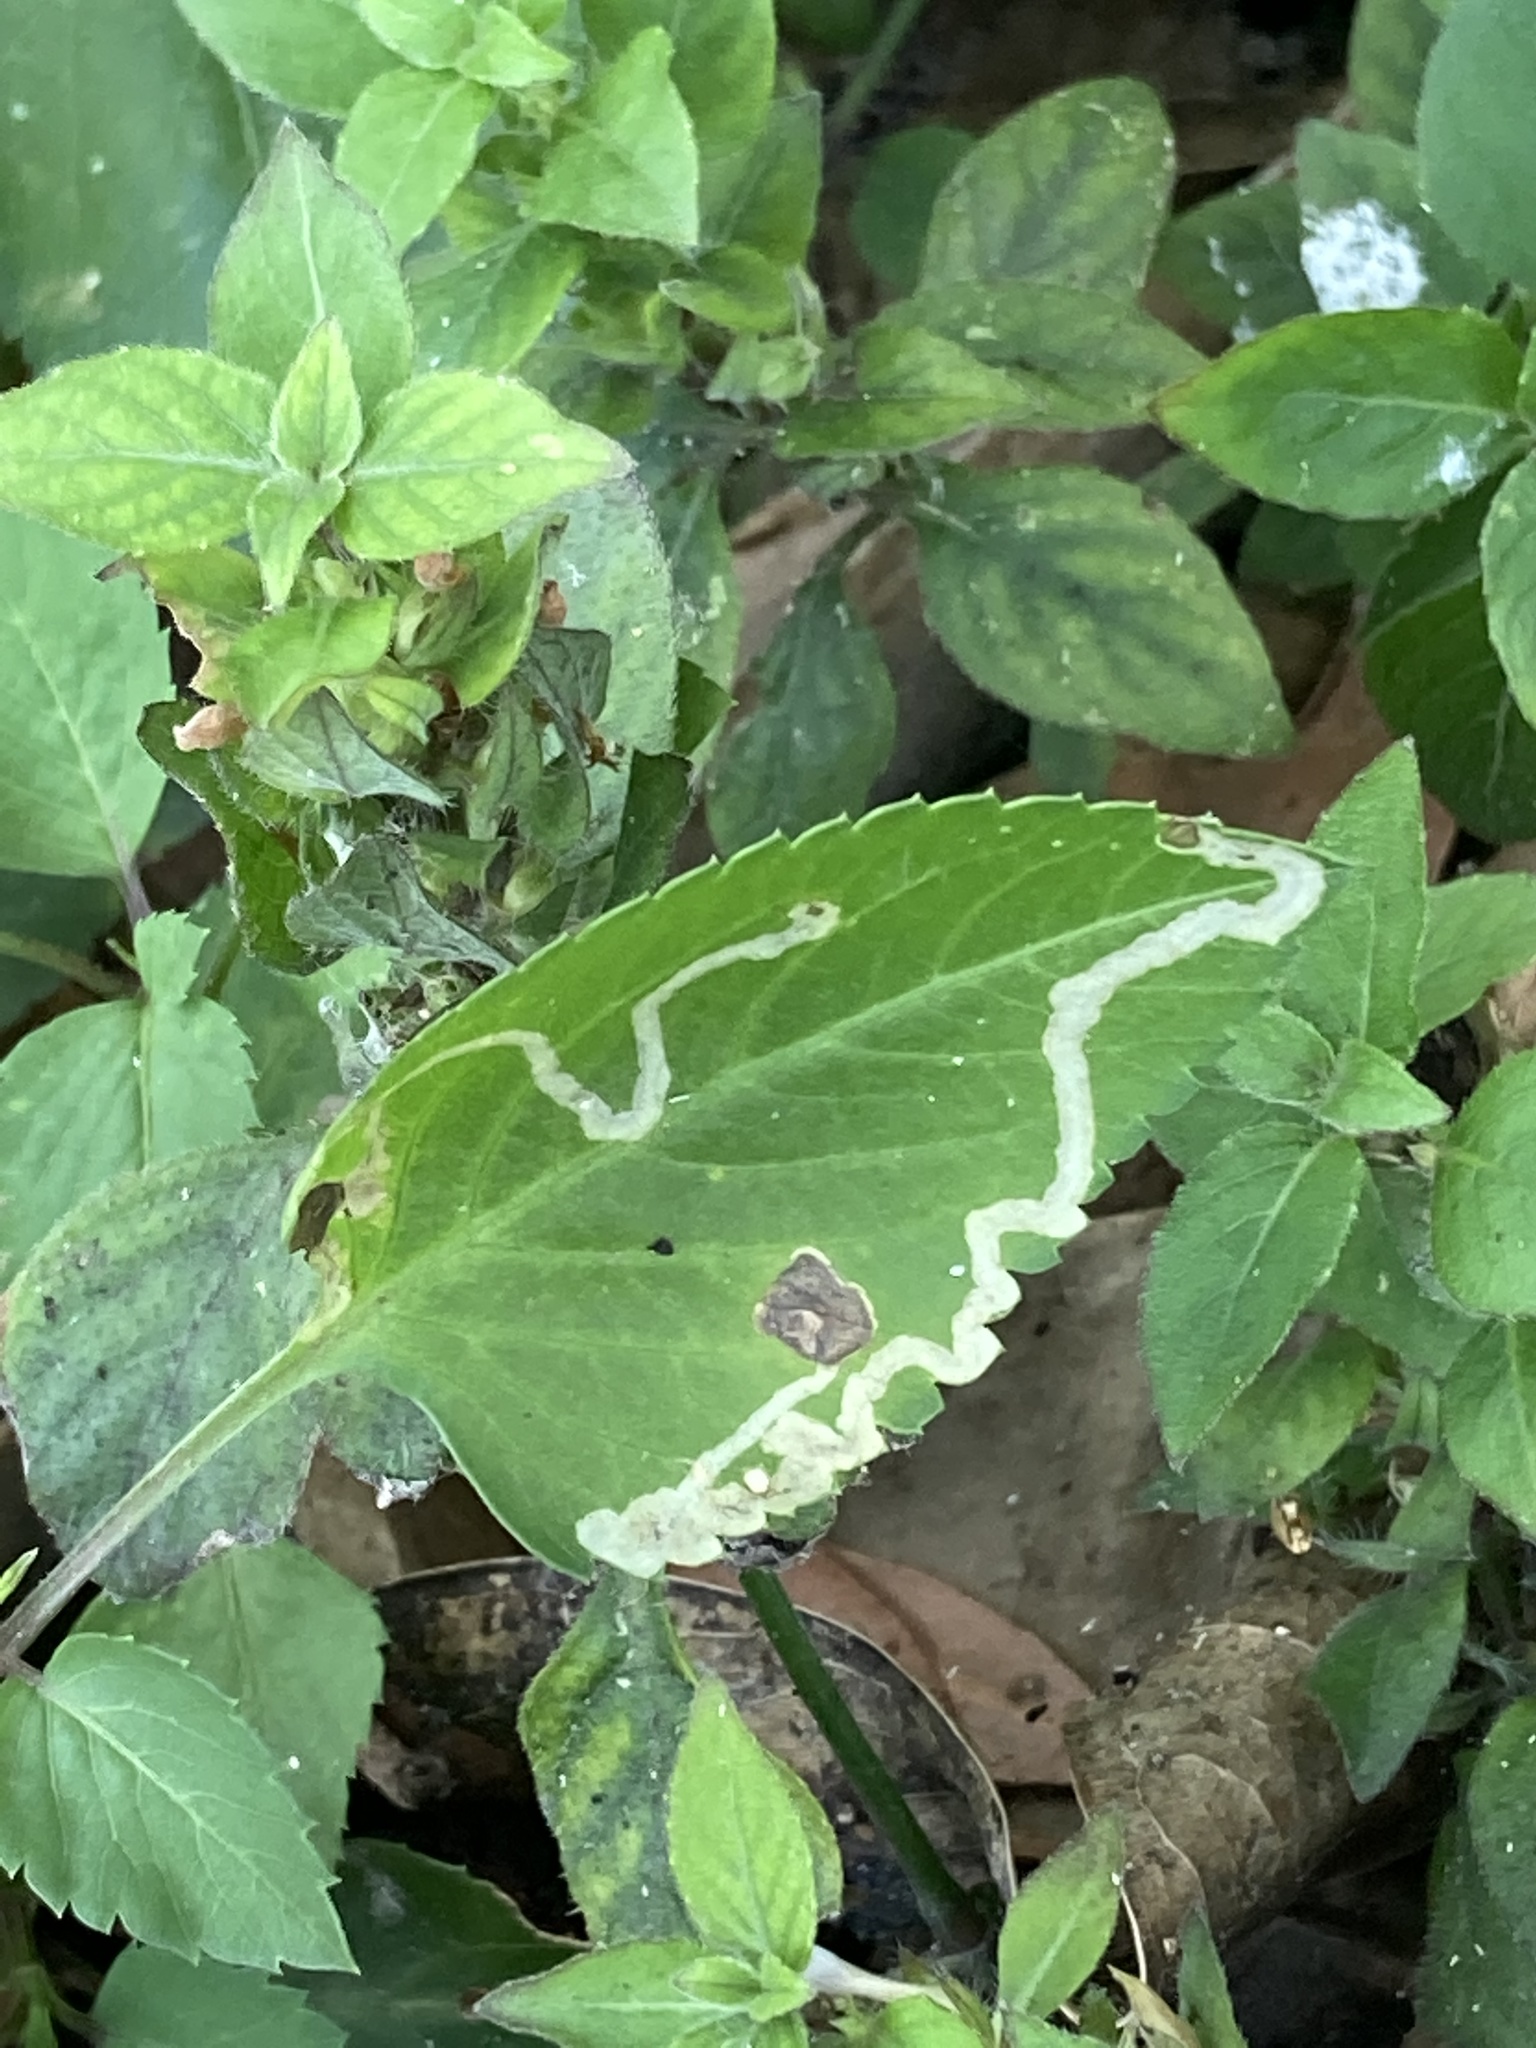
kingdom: Plantae
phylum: Tracheophyta
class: Magnoliopsida
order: Asterales
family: Asteraceae
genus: Bidens
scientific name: Bidens alba
